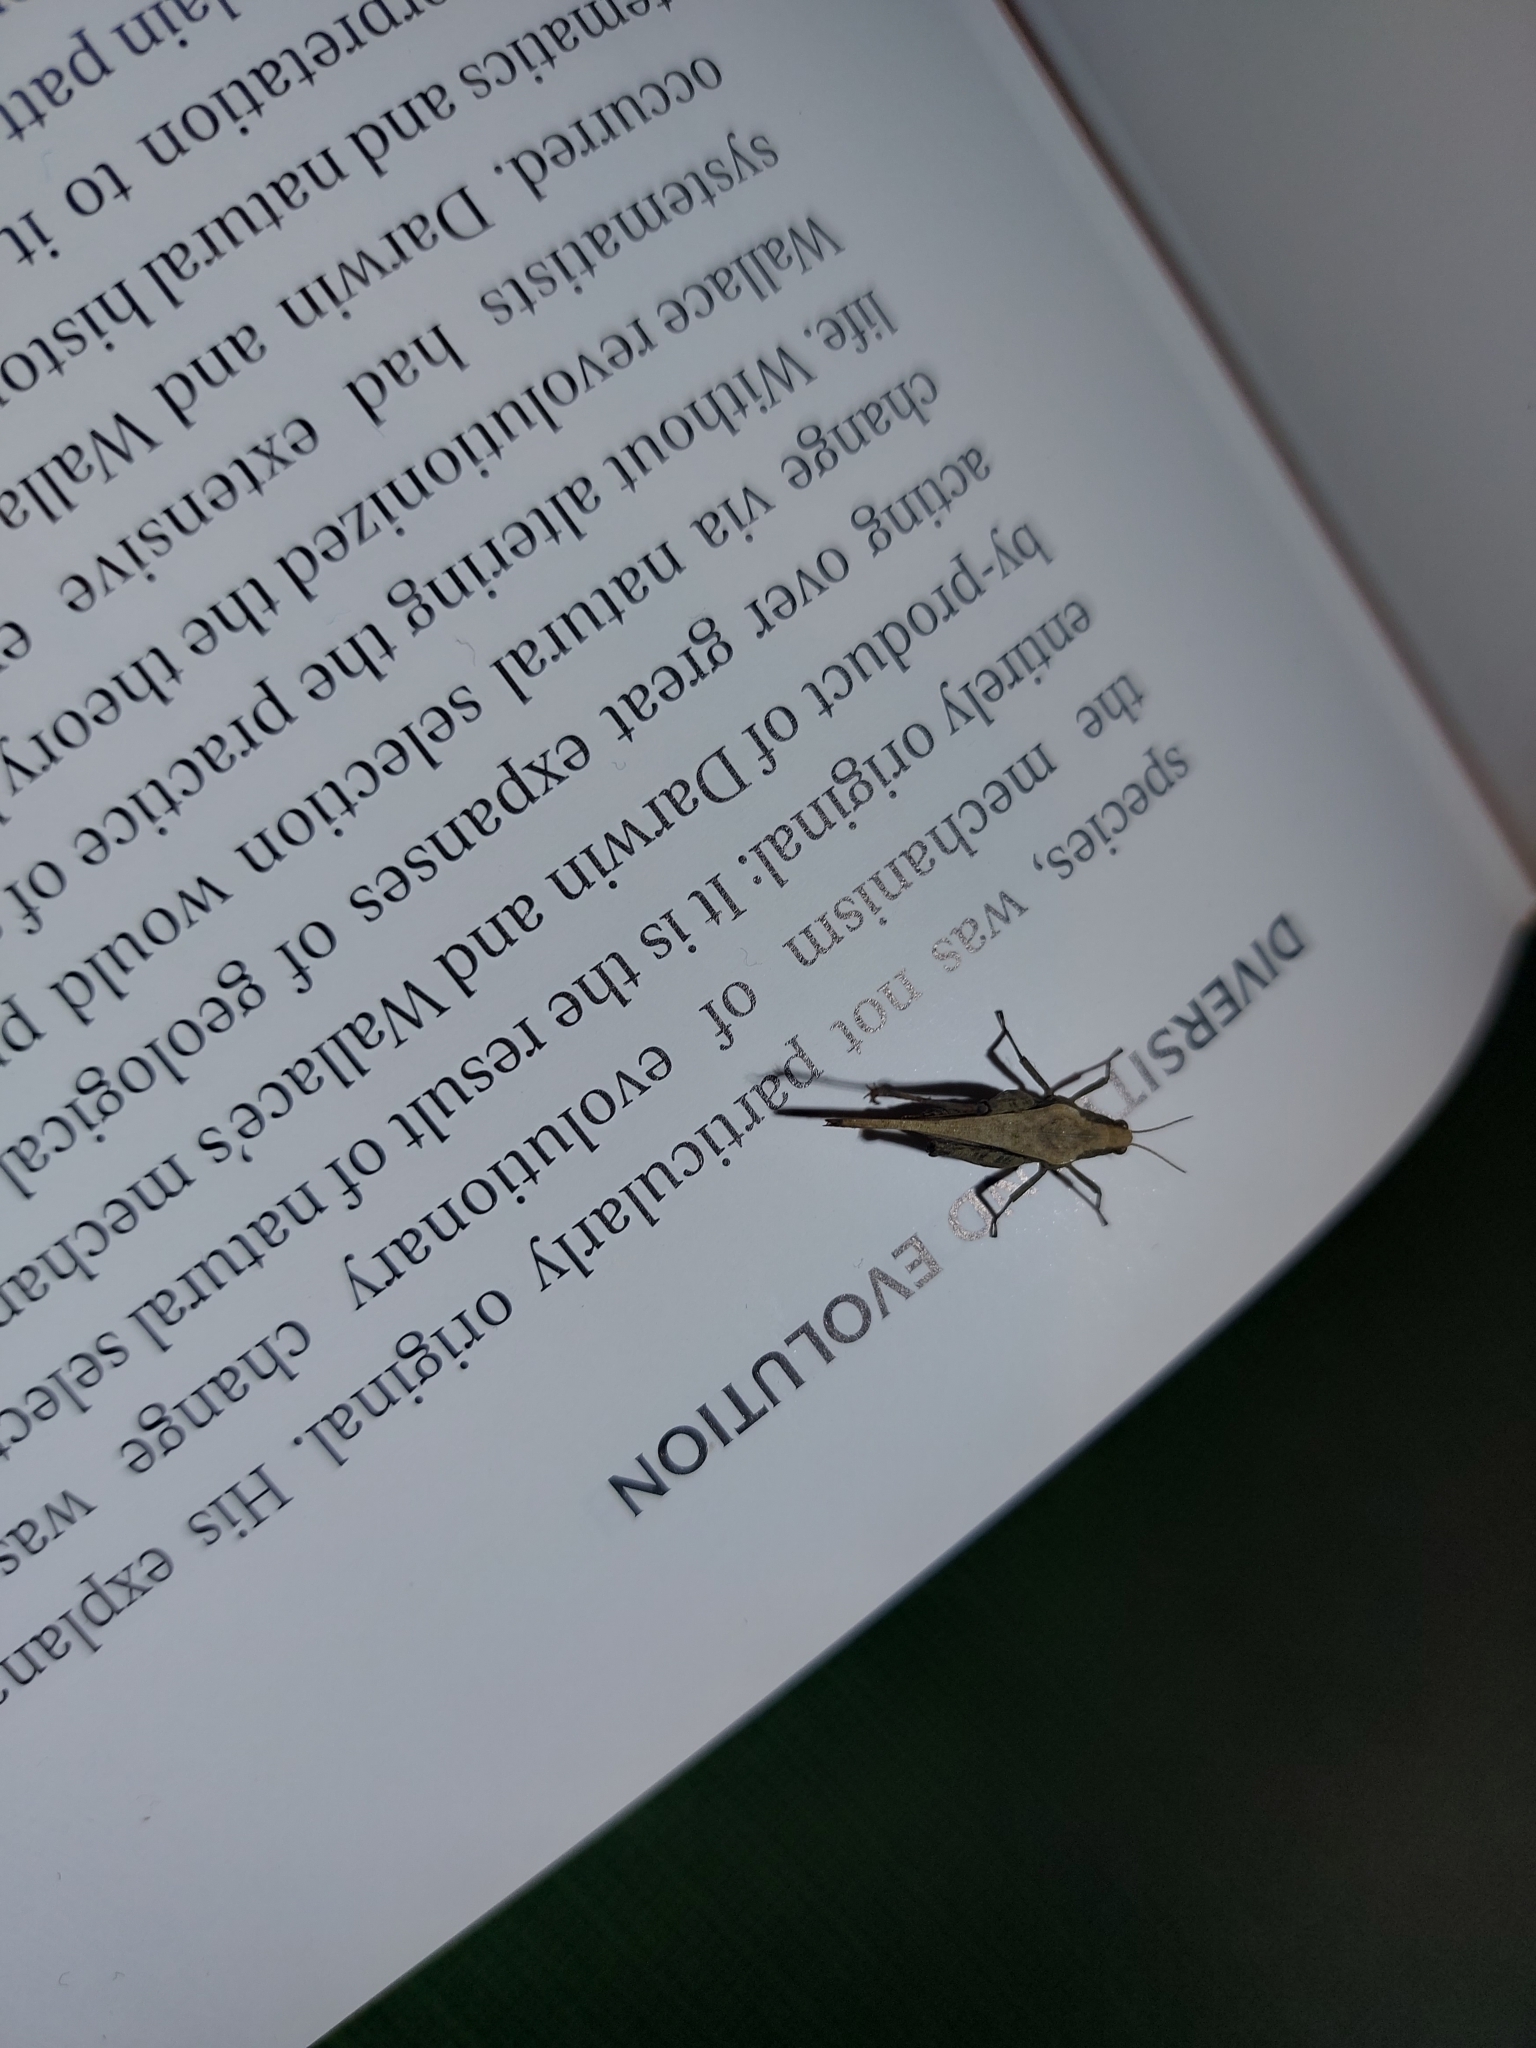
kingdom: Animalia
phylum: Arthropoda
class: Insecta
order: Orthoptera
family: Tetrigidae
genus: Tetrix
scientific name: Tetrix subulata
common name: Slender ground-hopper
